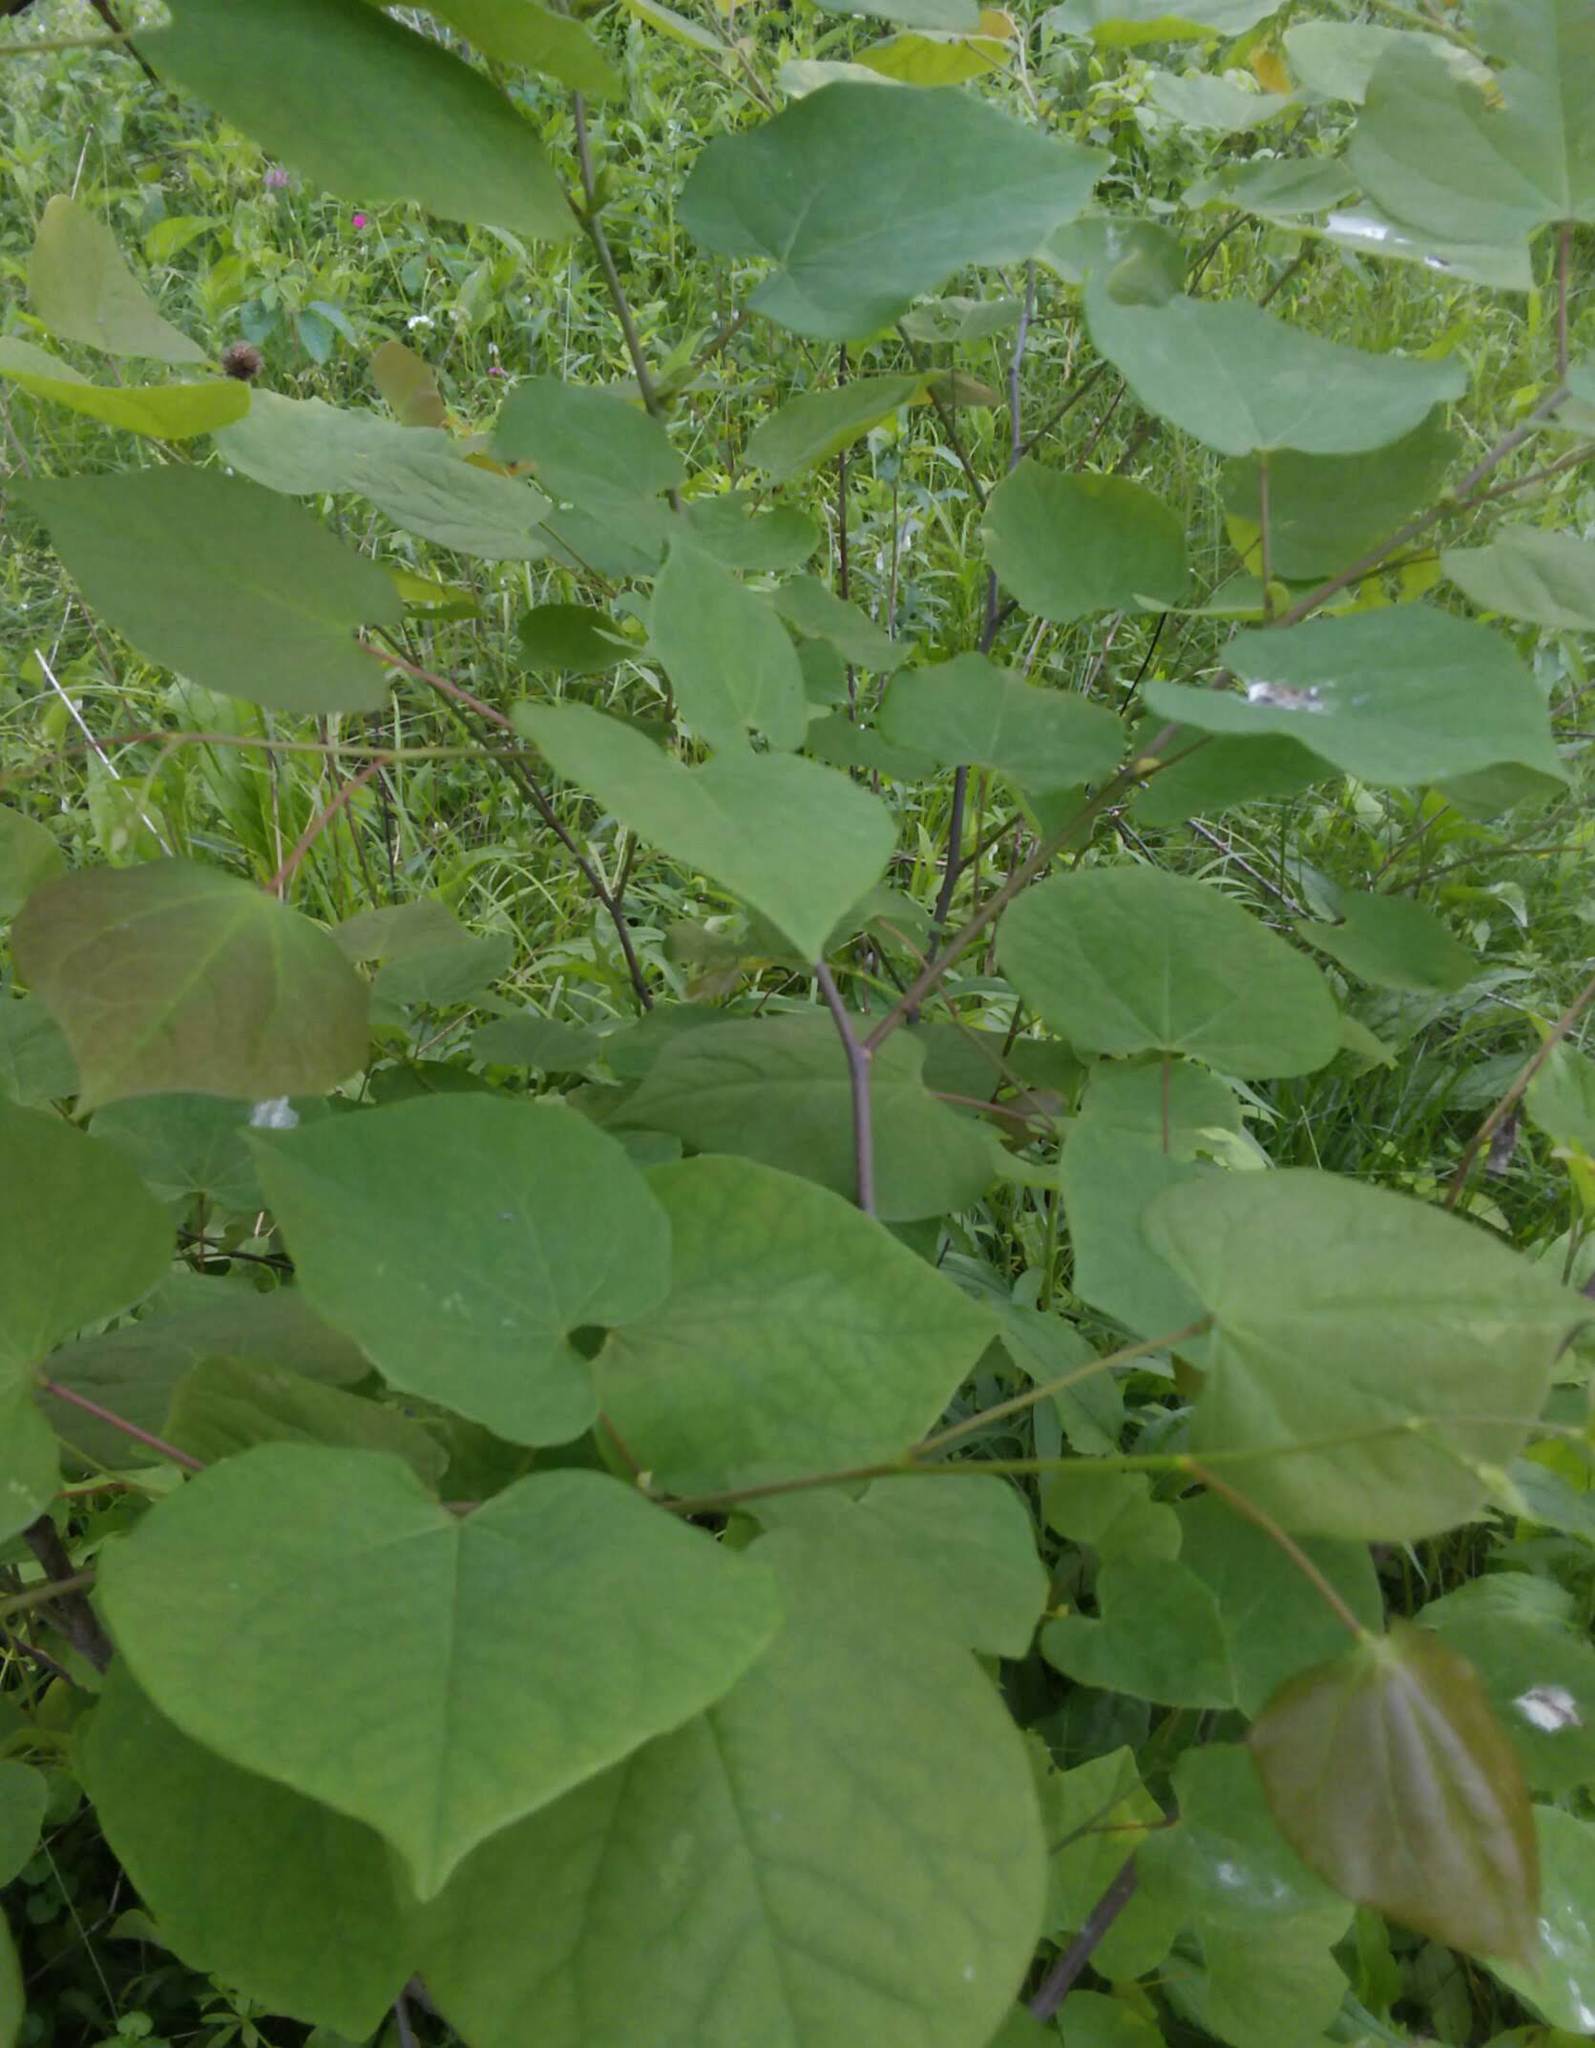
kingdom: Plantae
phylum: Tracheophyta
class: Magnoliopsida
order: Fabales
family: Fabaceae
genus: Cercis
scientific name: Cercis canadensis
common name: Eastern redbud
